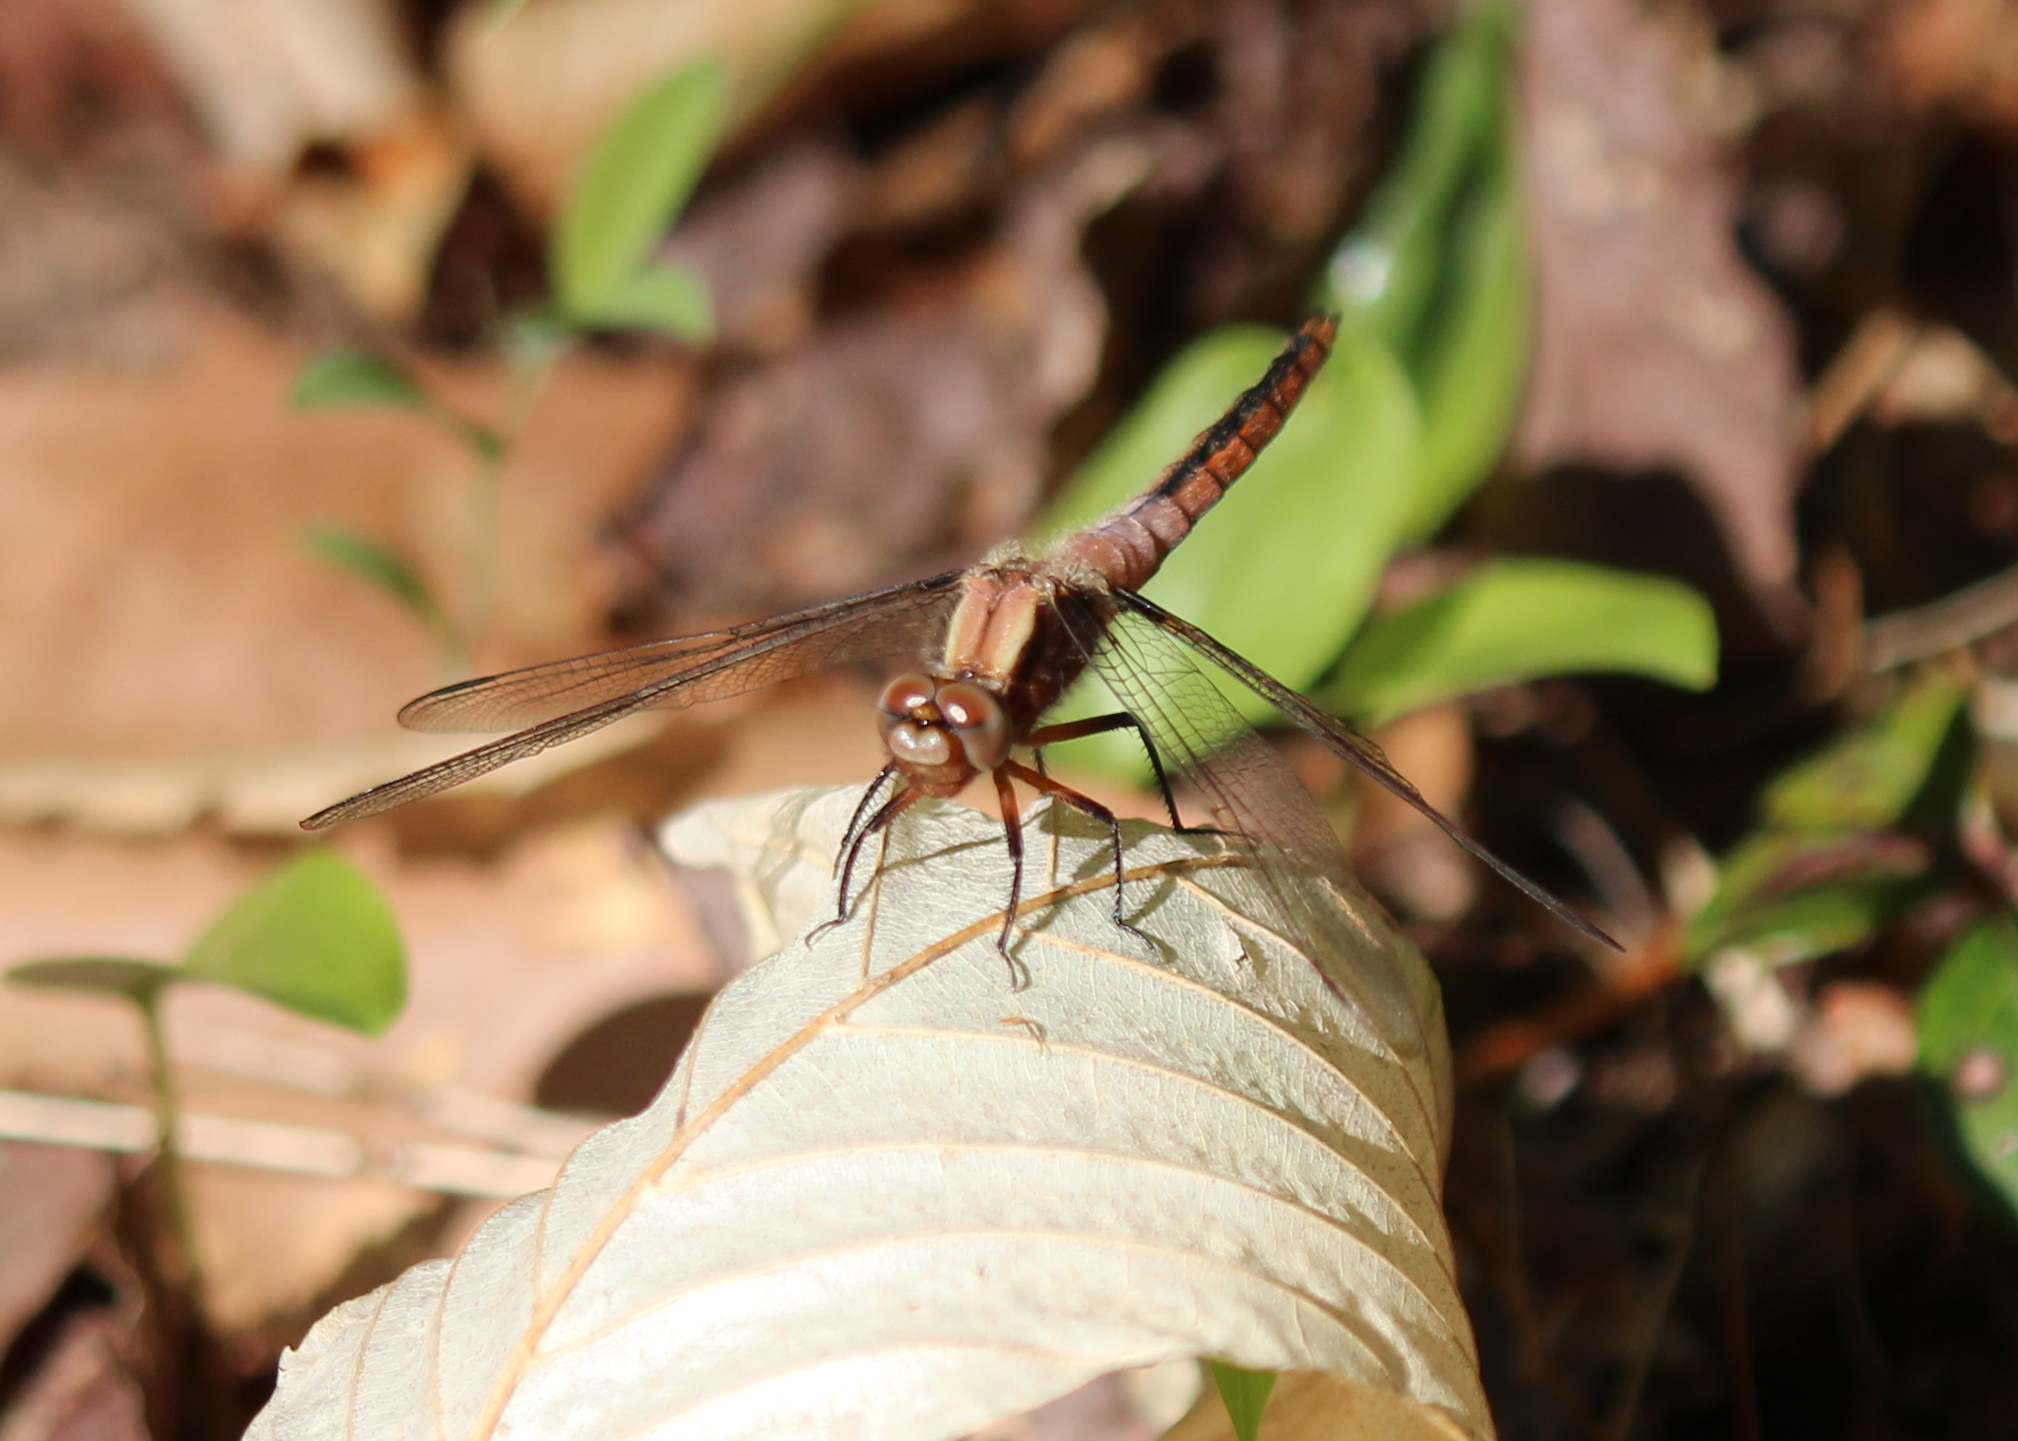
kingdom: Animalia
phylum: Arthropoda
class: Insecta
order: Odonata
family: Libellulidae
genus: Ladona
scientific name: Ladona julia
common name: Chalk-fronted corporal
